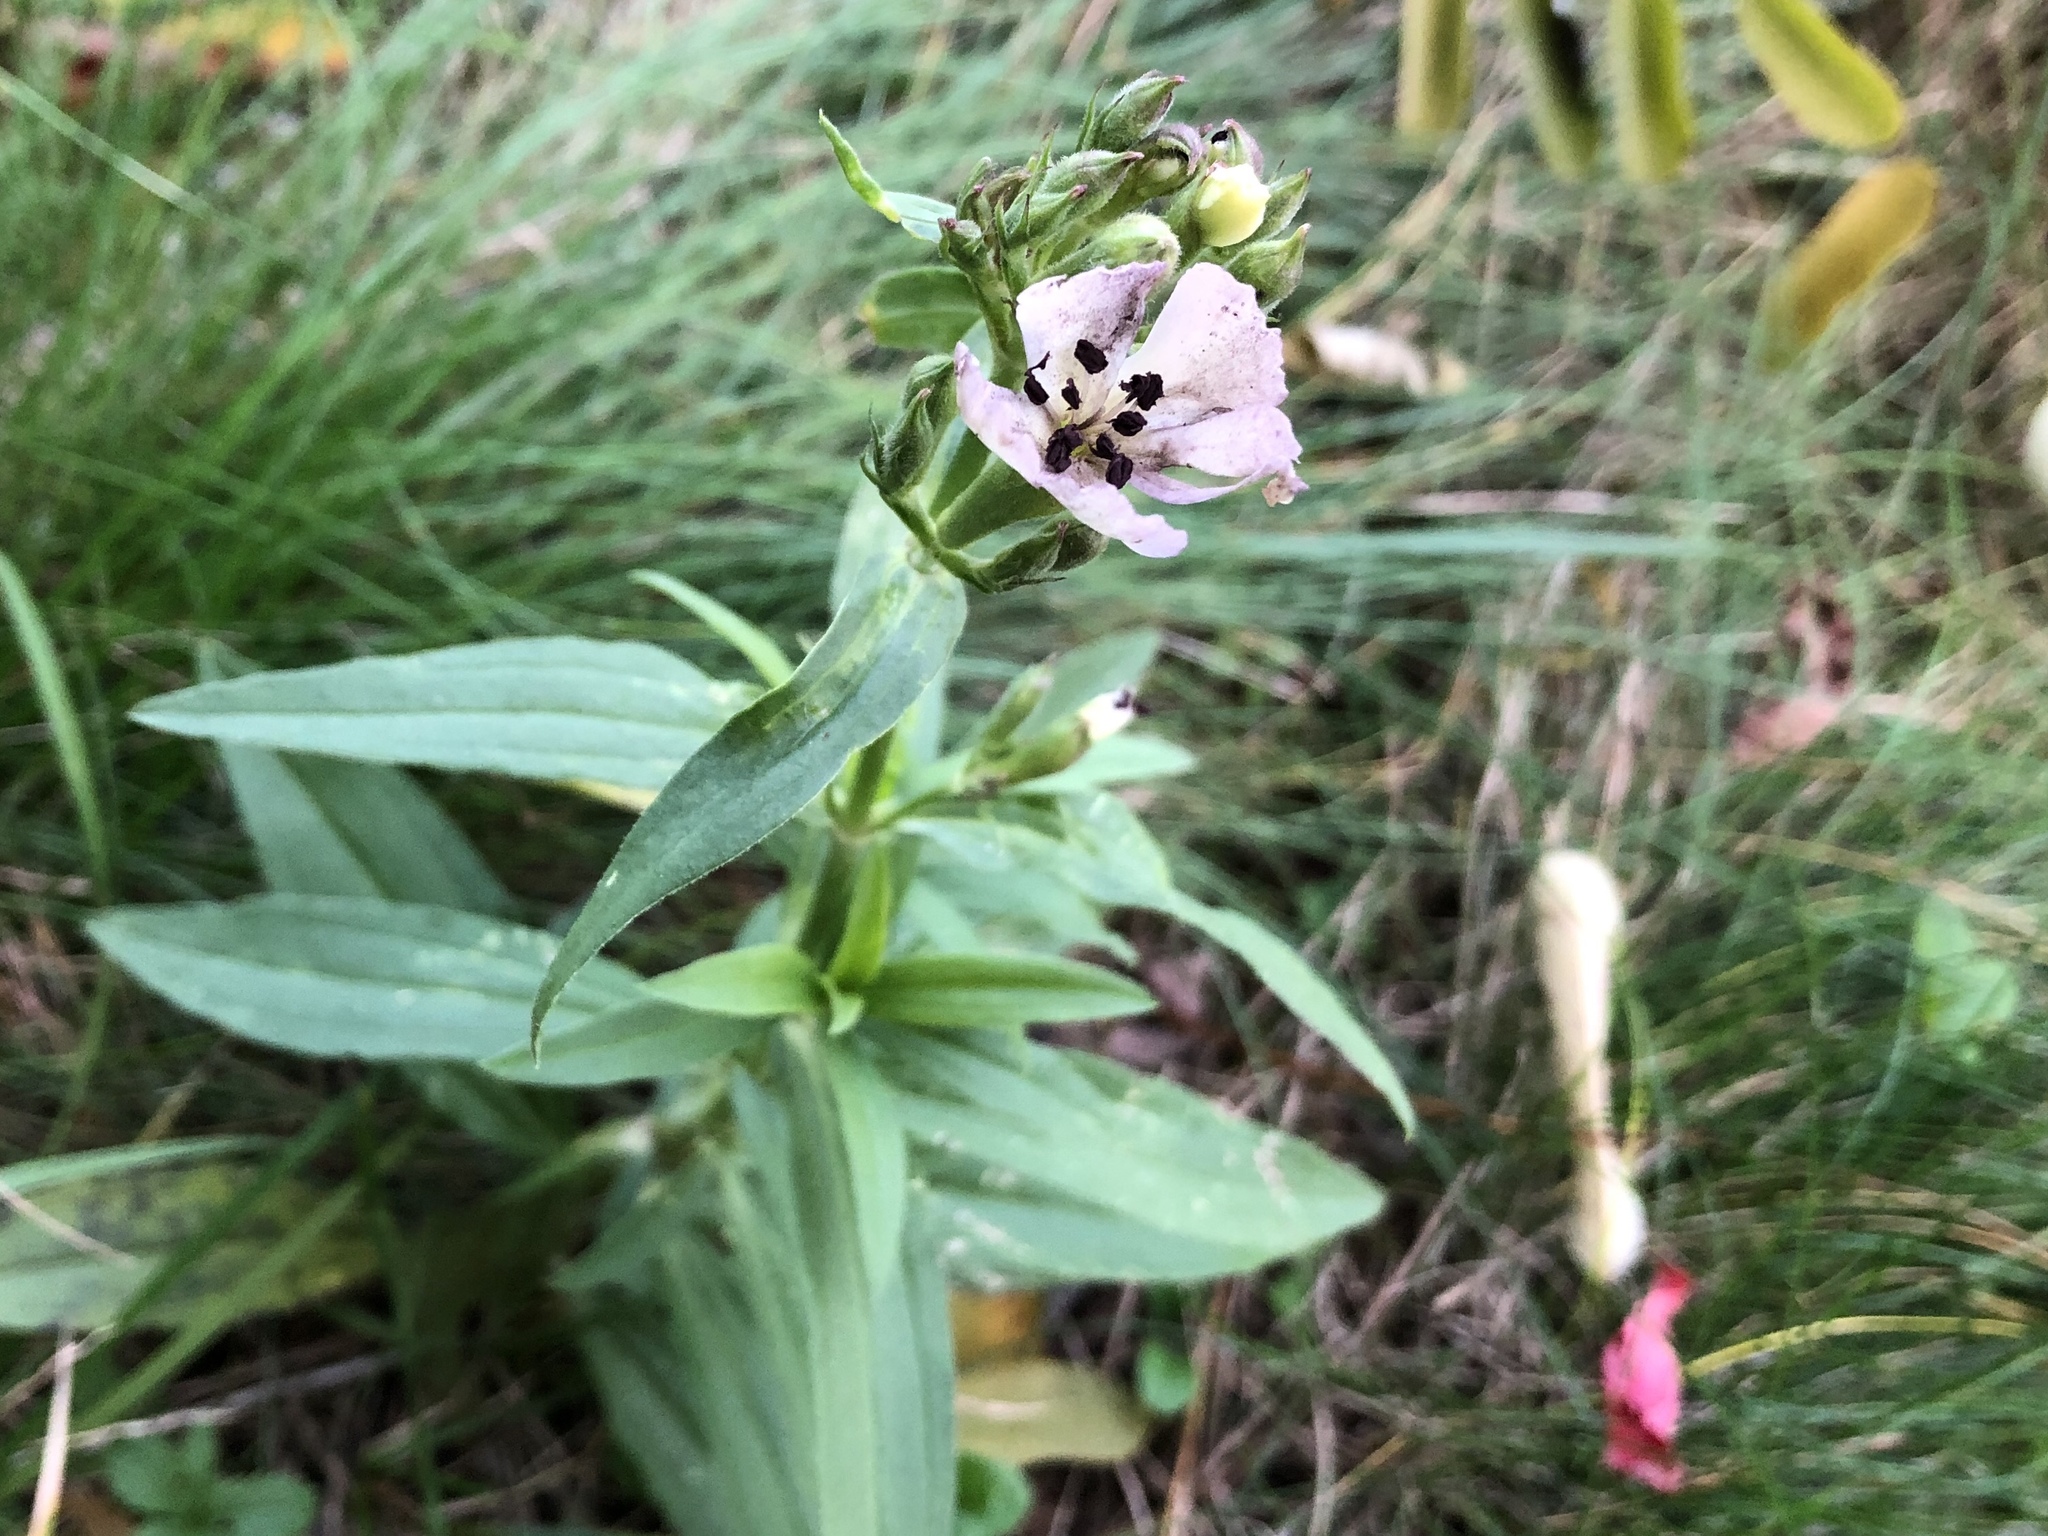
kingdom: Plantae
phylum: Tracheophyta
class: Magnoliopsida
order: Caryophyllales
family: Caryophyllaceae
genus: Saponaria
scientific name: Saponaria officinalis
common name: Soapwort
